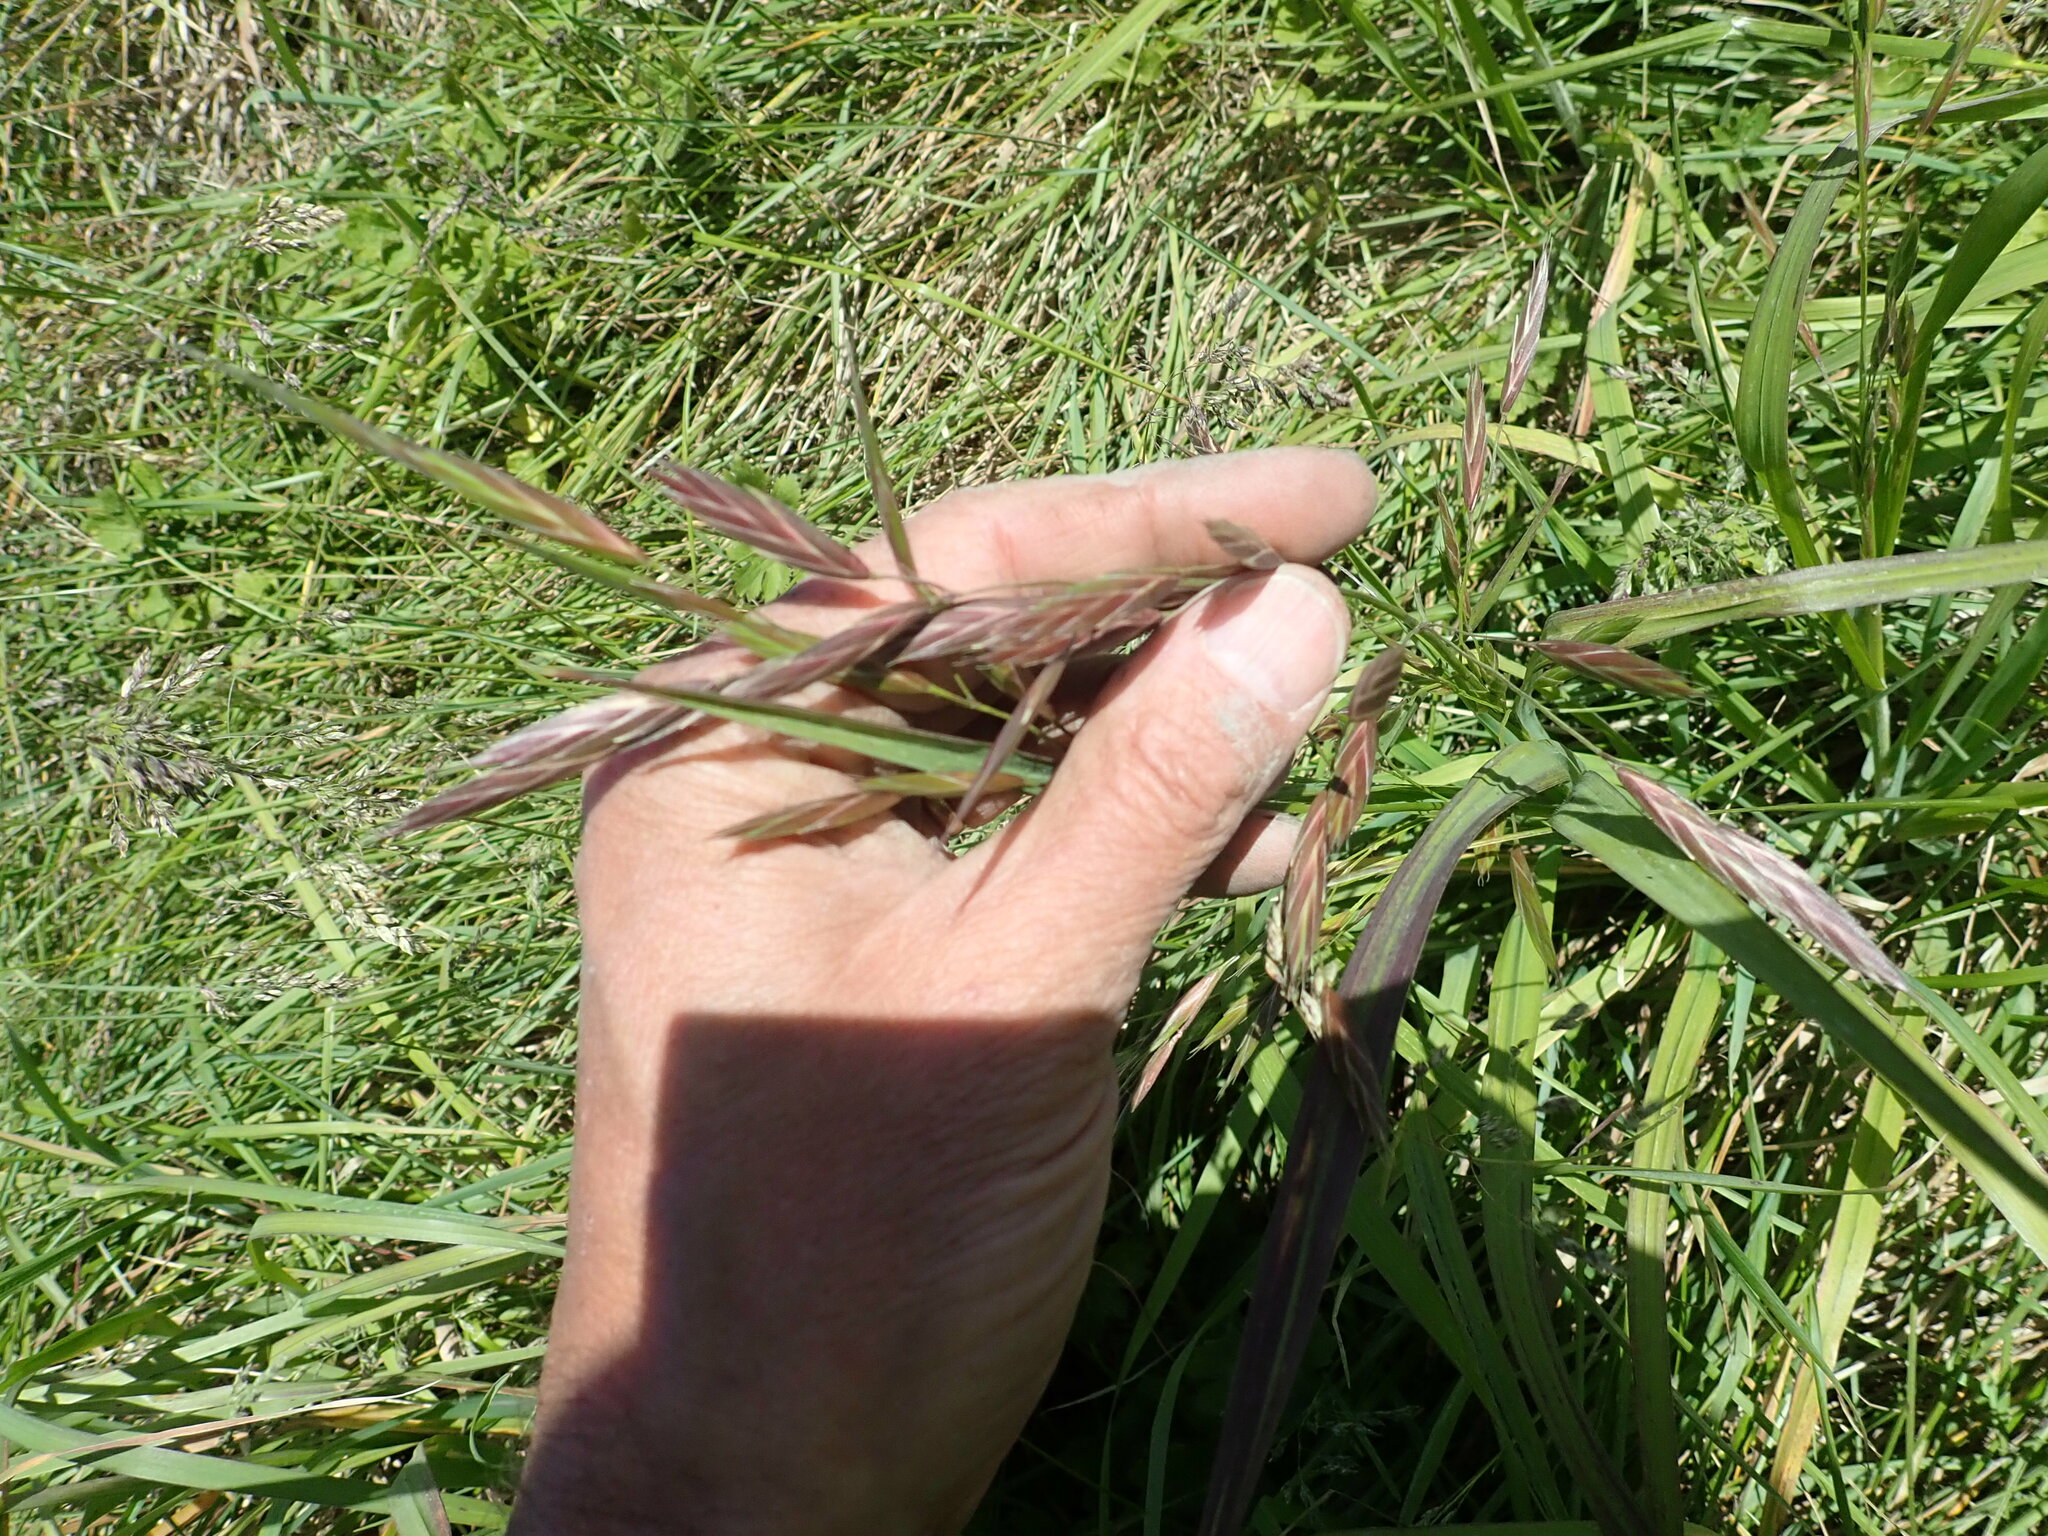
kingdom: Plantae
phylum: Tracheophyta
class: Liliopsida
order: Poales
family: Poaceae
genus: Bromus
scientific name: Bromus catharticus
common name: Rescuegrass
